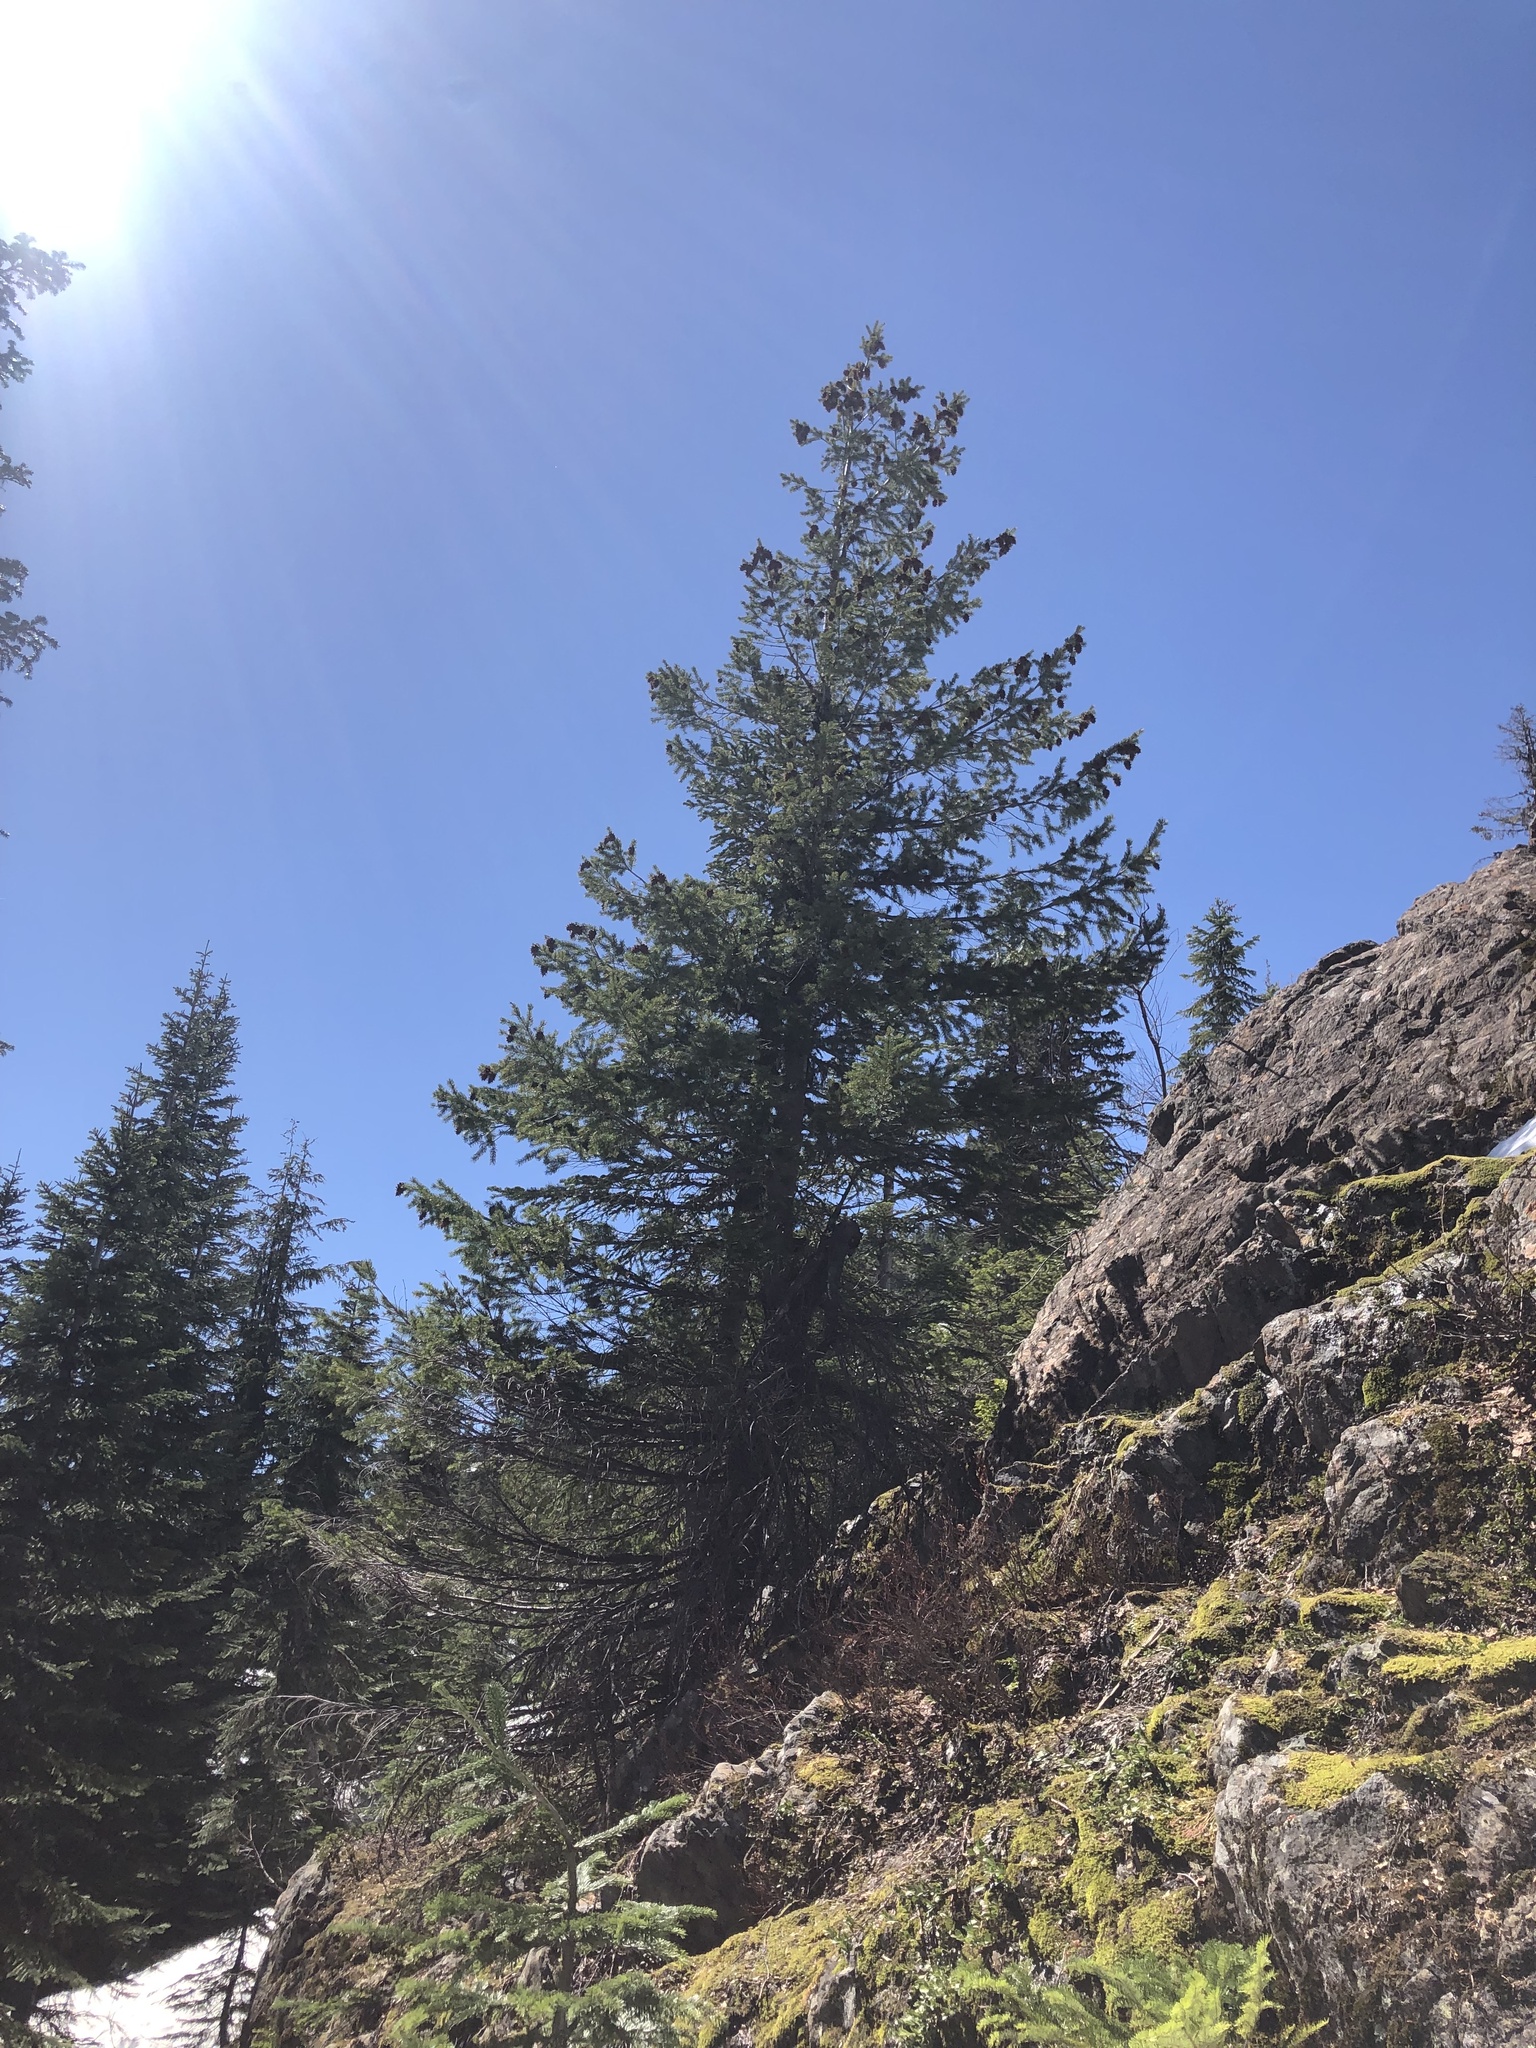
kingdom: Plantae
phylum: Tracheophyta
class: Pinopsida
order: Pinales
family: Pinaceae
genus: Pseudotsuga
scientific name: Pseudotsuga menziesii
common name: Douglas fir
